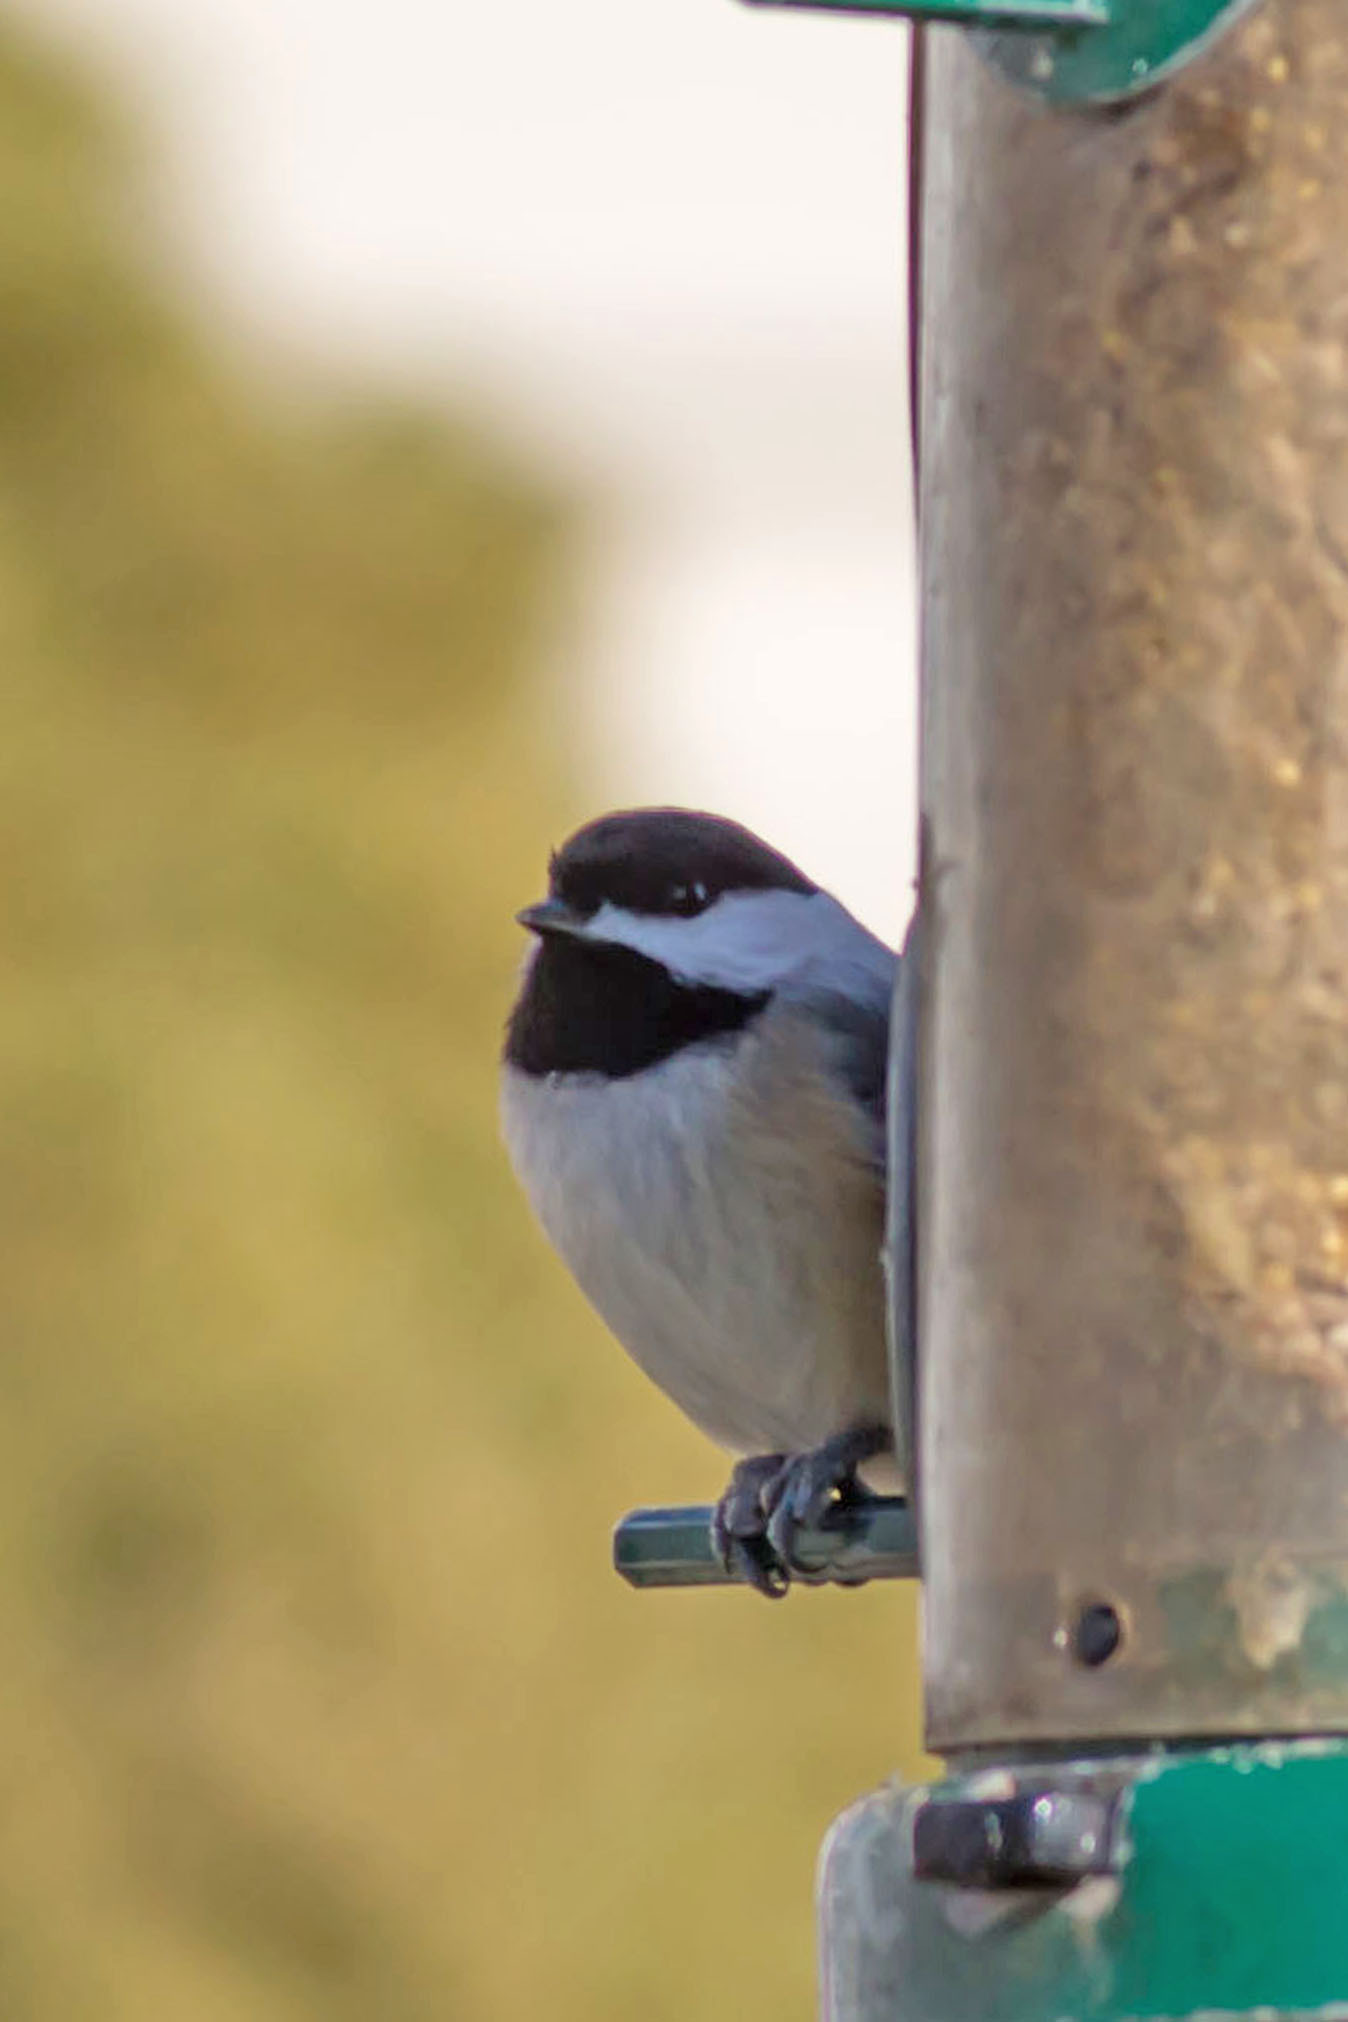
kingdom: Animalia
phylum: Chordata
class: Aves
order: Passeriformes
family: Paridae
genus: Poecile
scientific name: Poecile carolinensis
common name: Carolina chickadee
